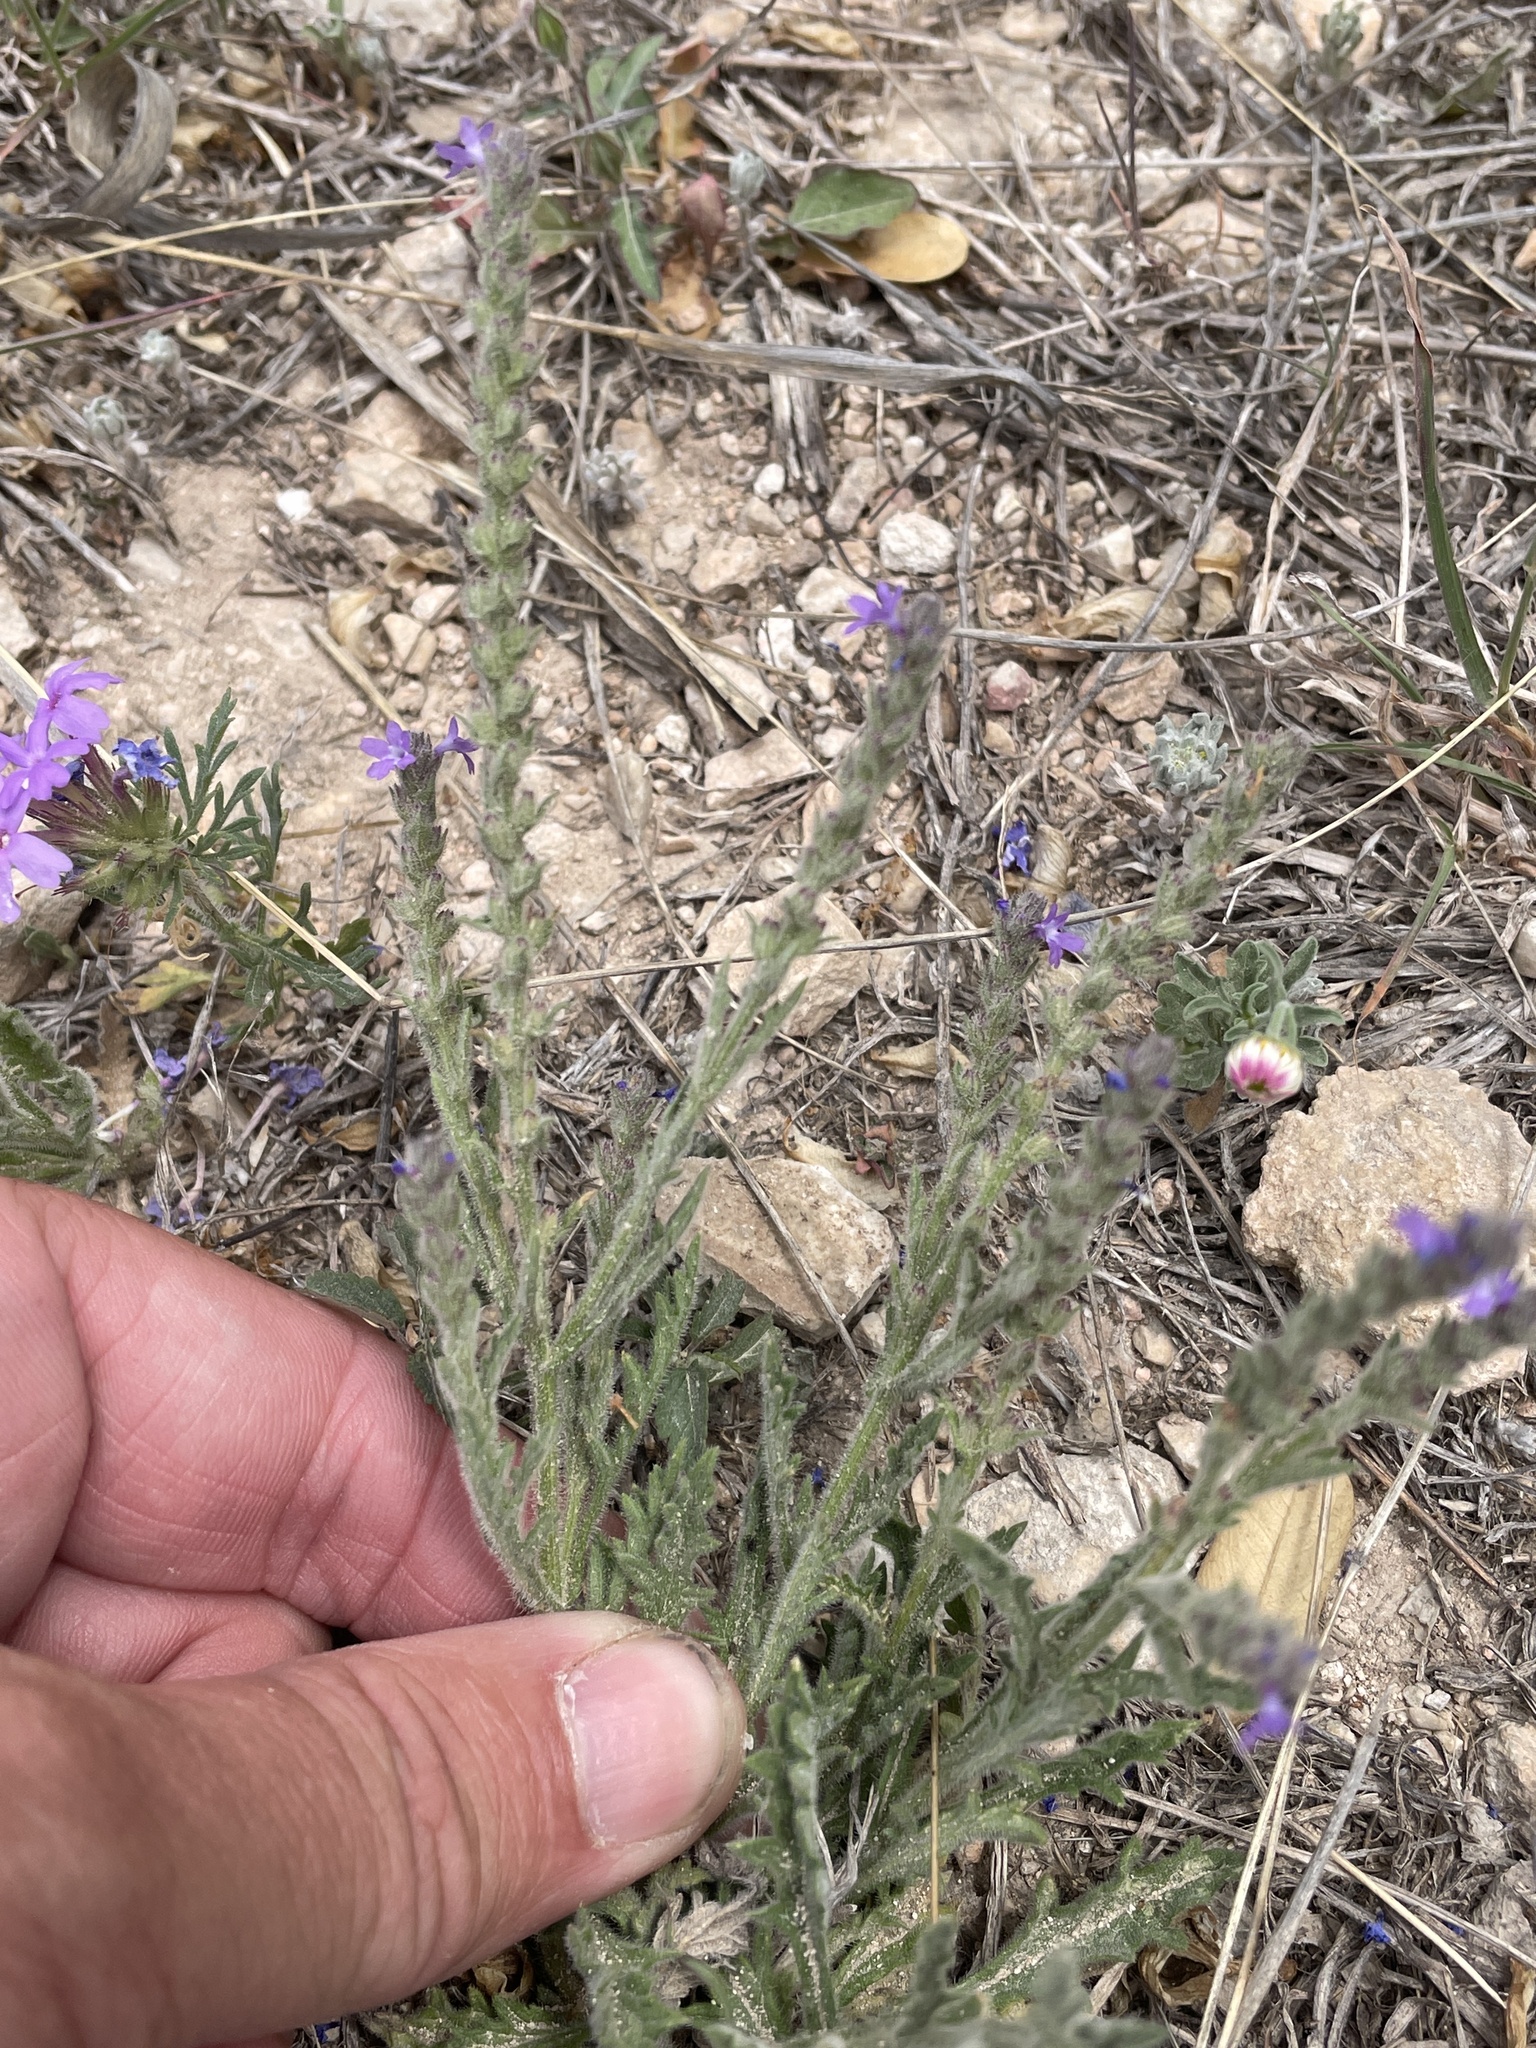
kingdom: Plantae
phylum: Tracheophyta
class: Magnoliopsida
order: Lamiales
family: Verbenaceae
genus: Verbena
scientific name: Verbena canescens
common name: Gray vervain
